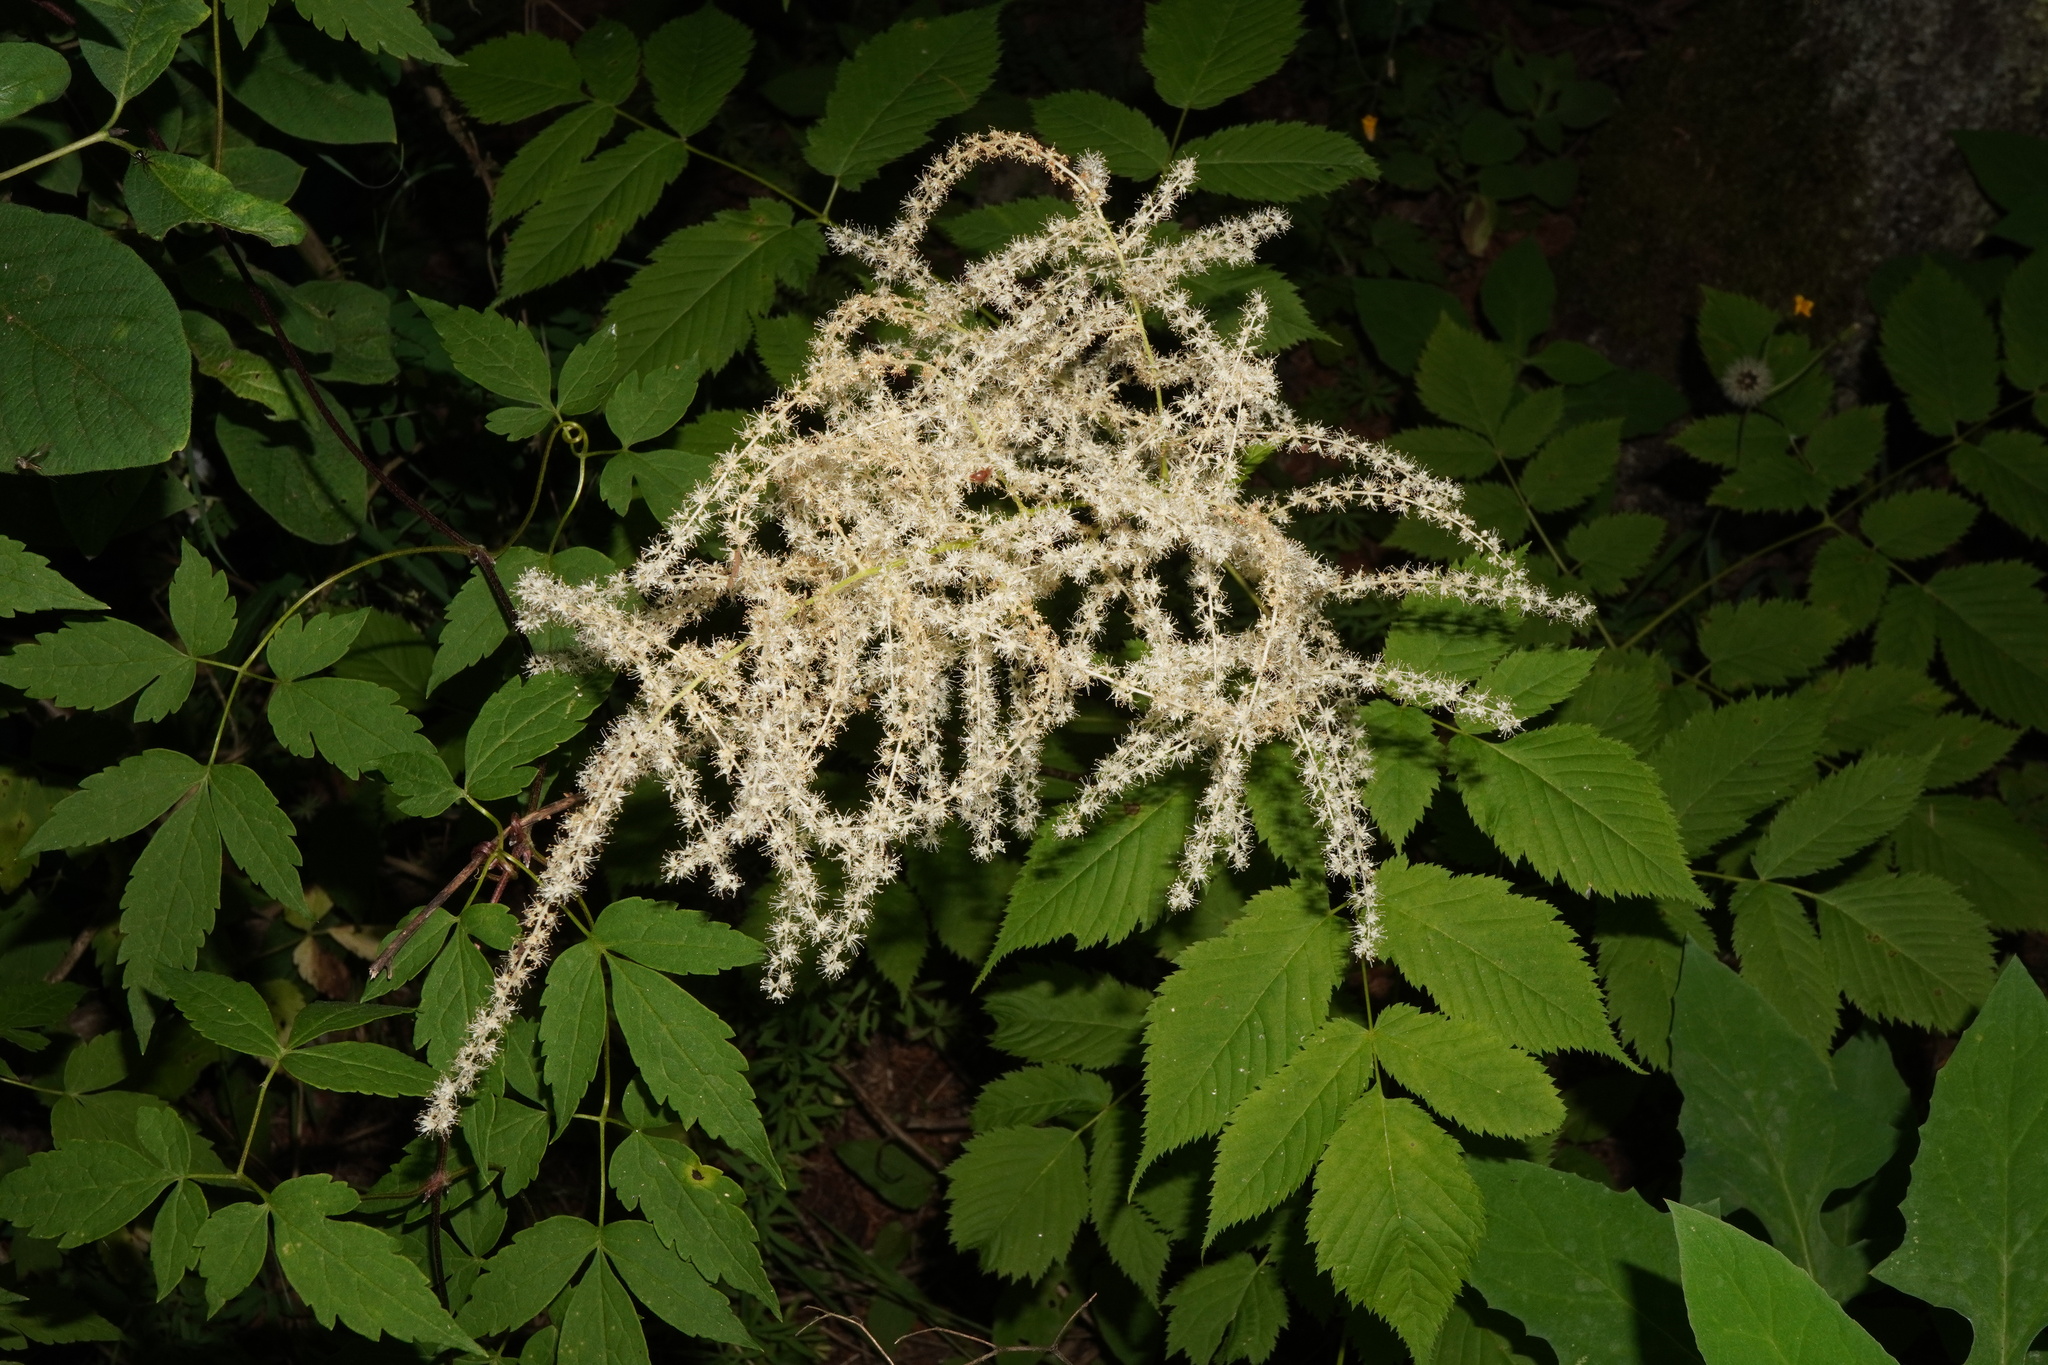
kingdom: Plantae
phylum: Tracheophyta
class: Magnoliopsida
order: Rosales
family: Rosaceae
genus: Aruncus
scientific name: Aruncus dioicus
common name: Buck's-beard
